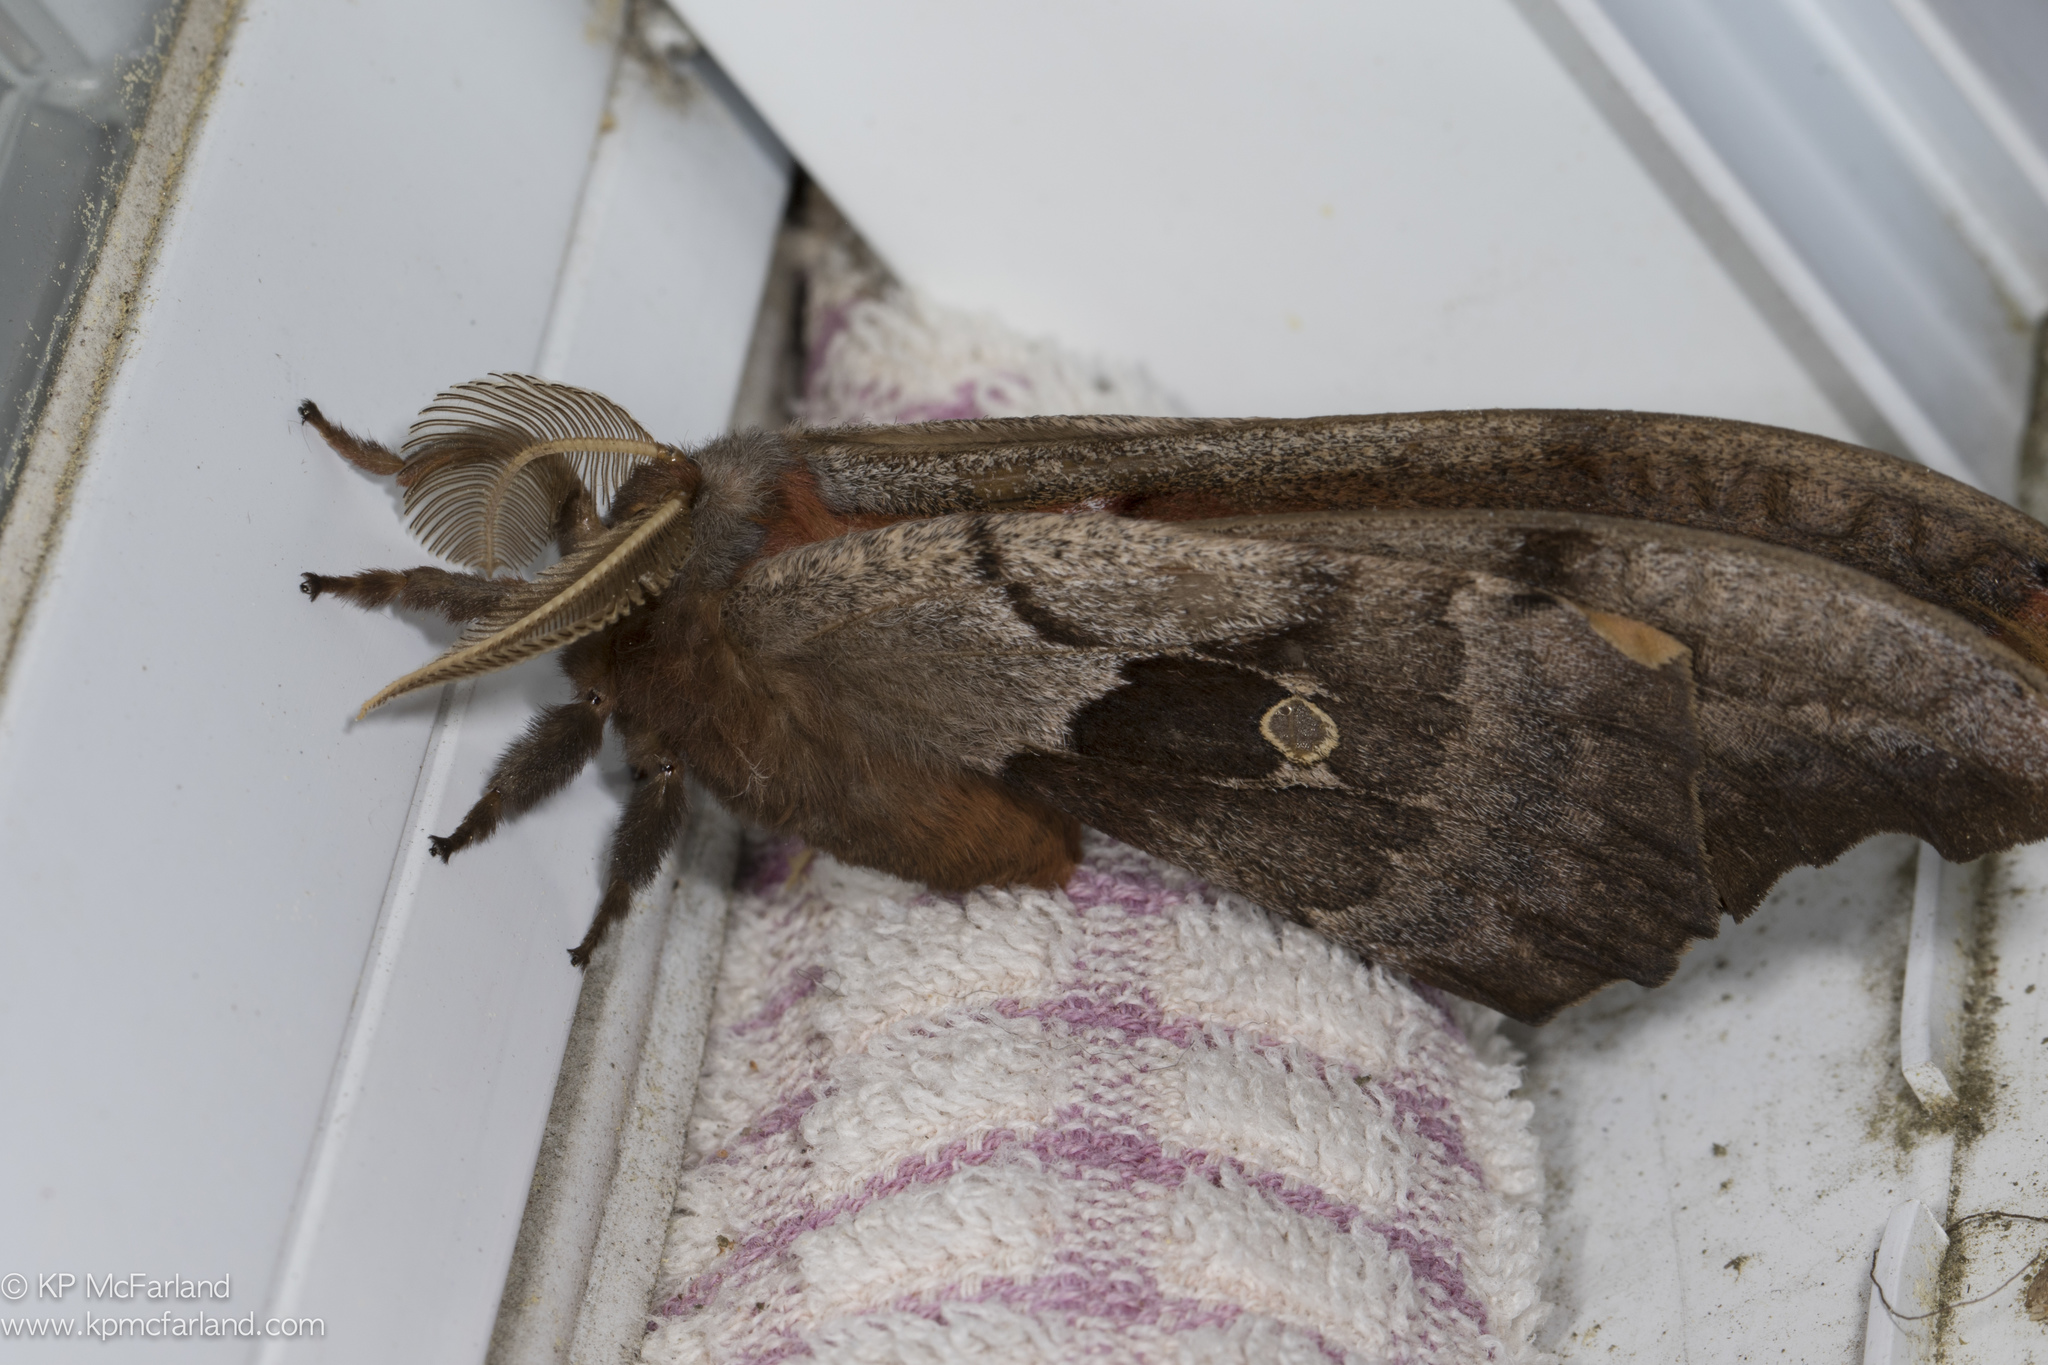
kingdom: Animalia
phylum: Arthropoda
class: Insecta
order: Lepidoptera
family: Saturniidae
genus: Antheraea
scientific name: Antheraea polyphemus
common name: Polyphemus moth
